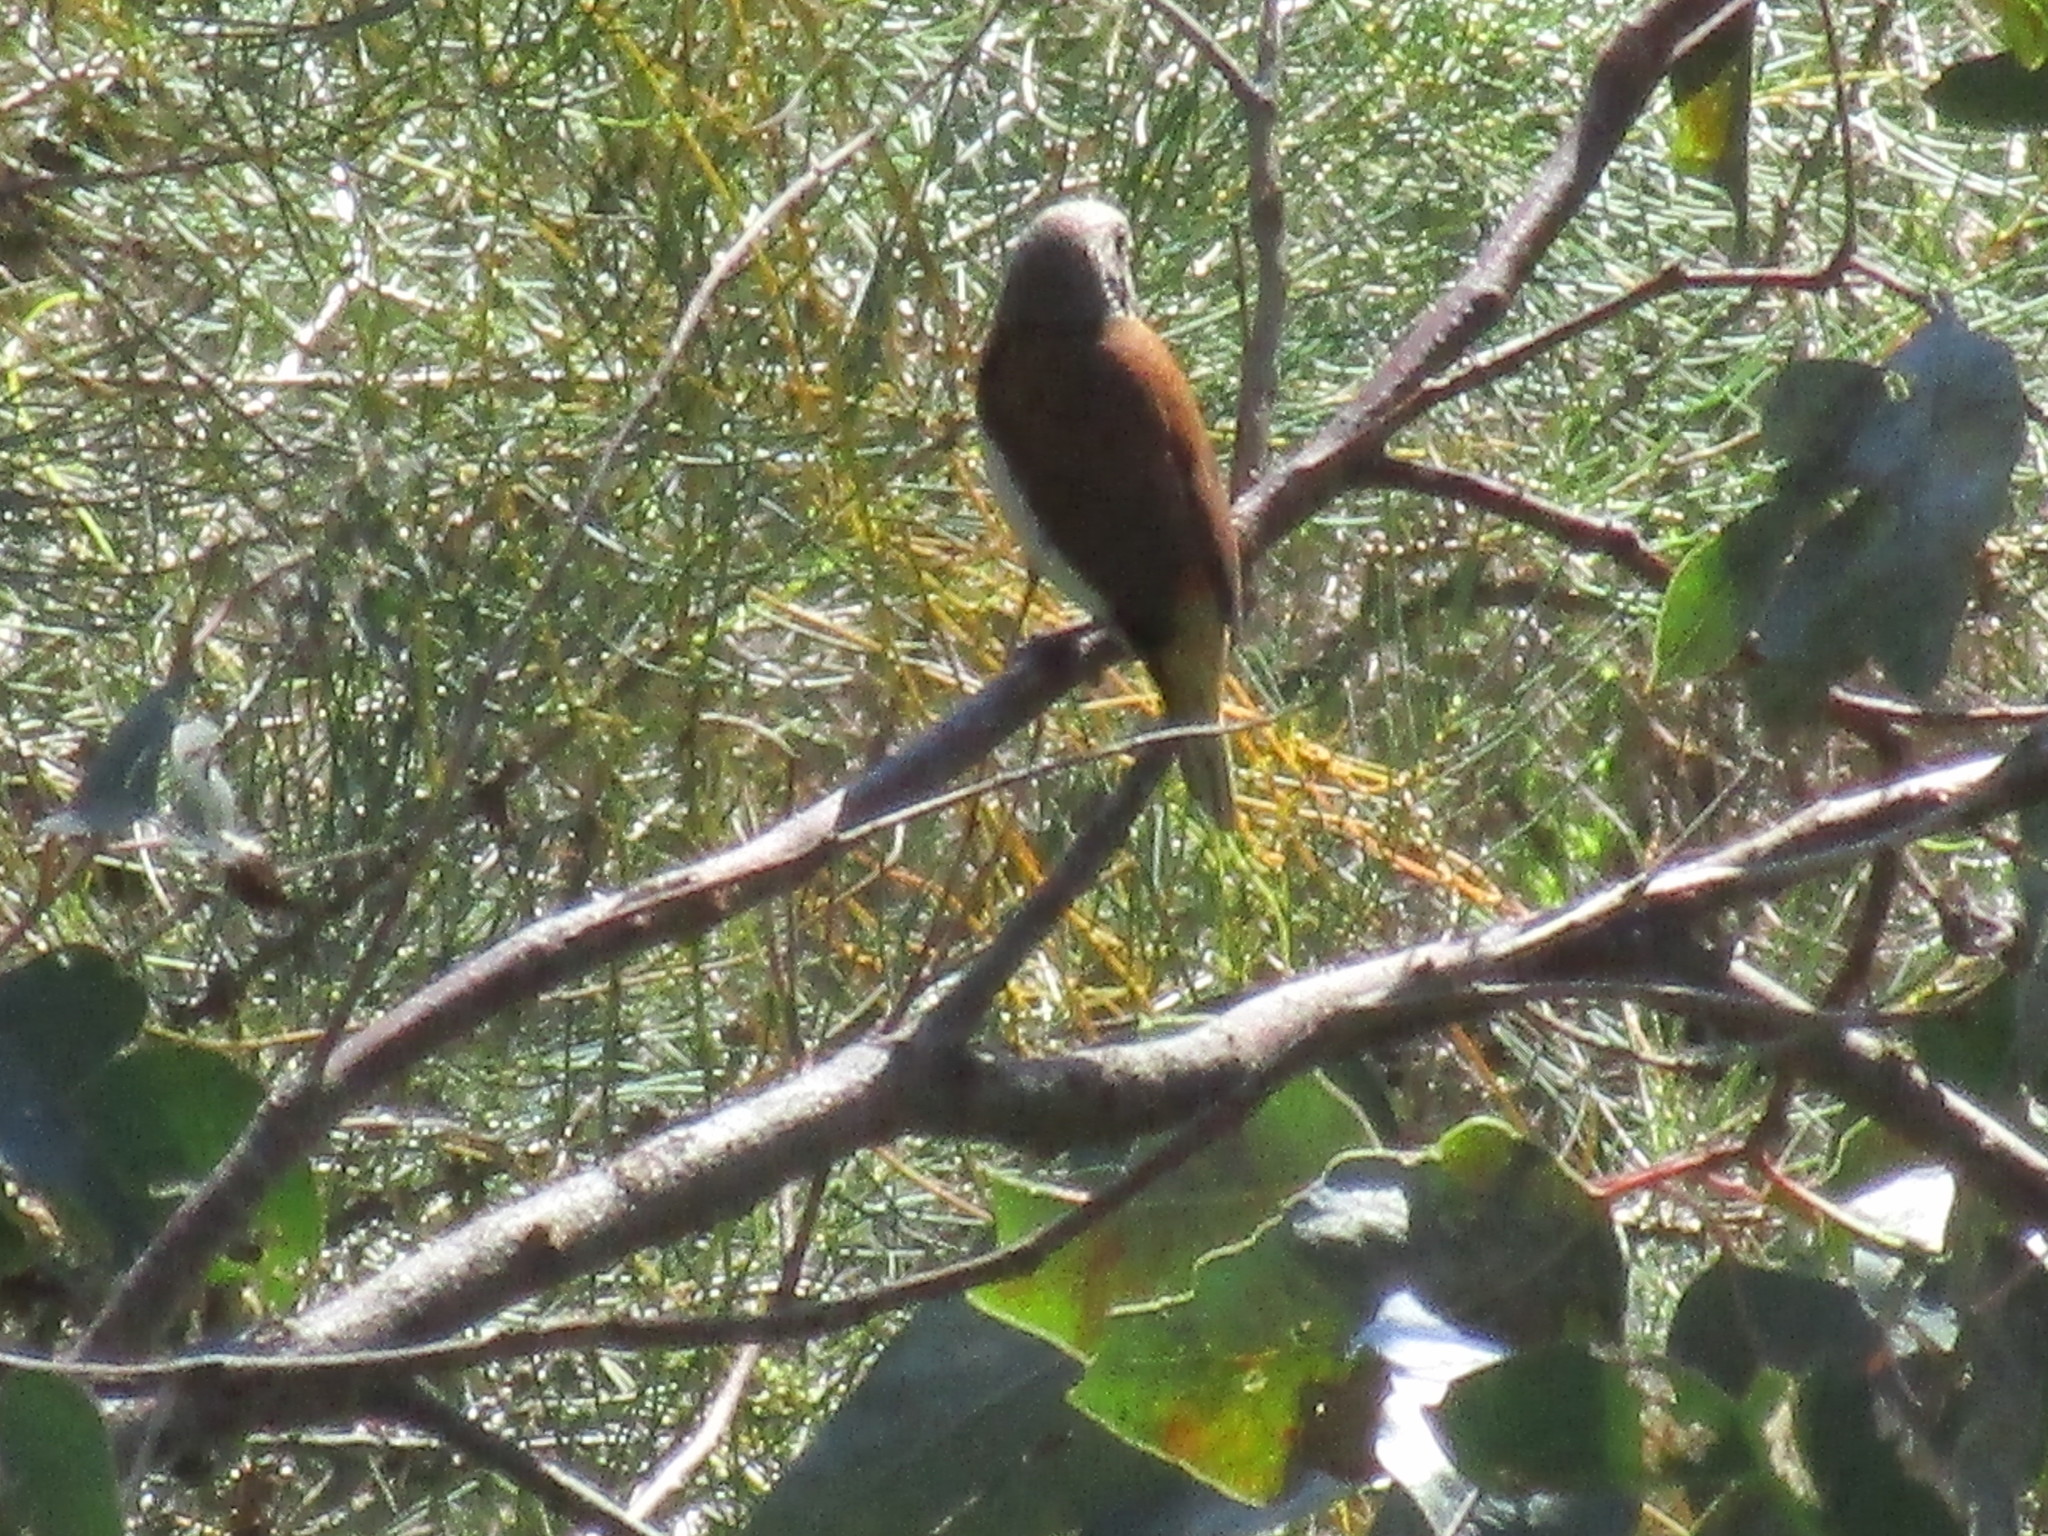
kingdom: Animalia
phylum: Chordata
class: Aves
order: Passeriformes
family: Estrildidae
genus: Lonchura
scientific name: Lonchura castaneothorax
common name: Chestnut-breasted mannikin
